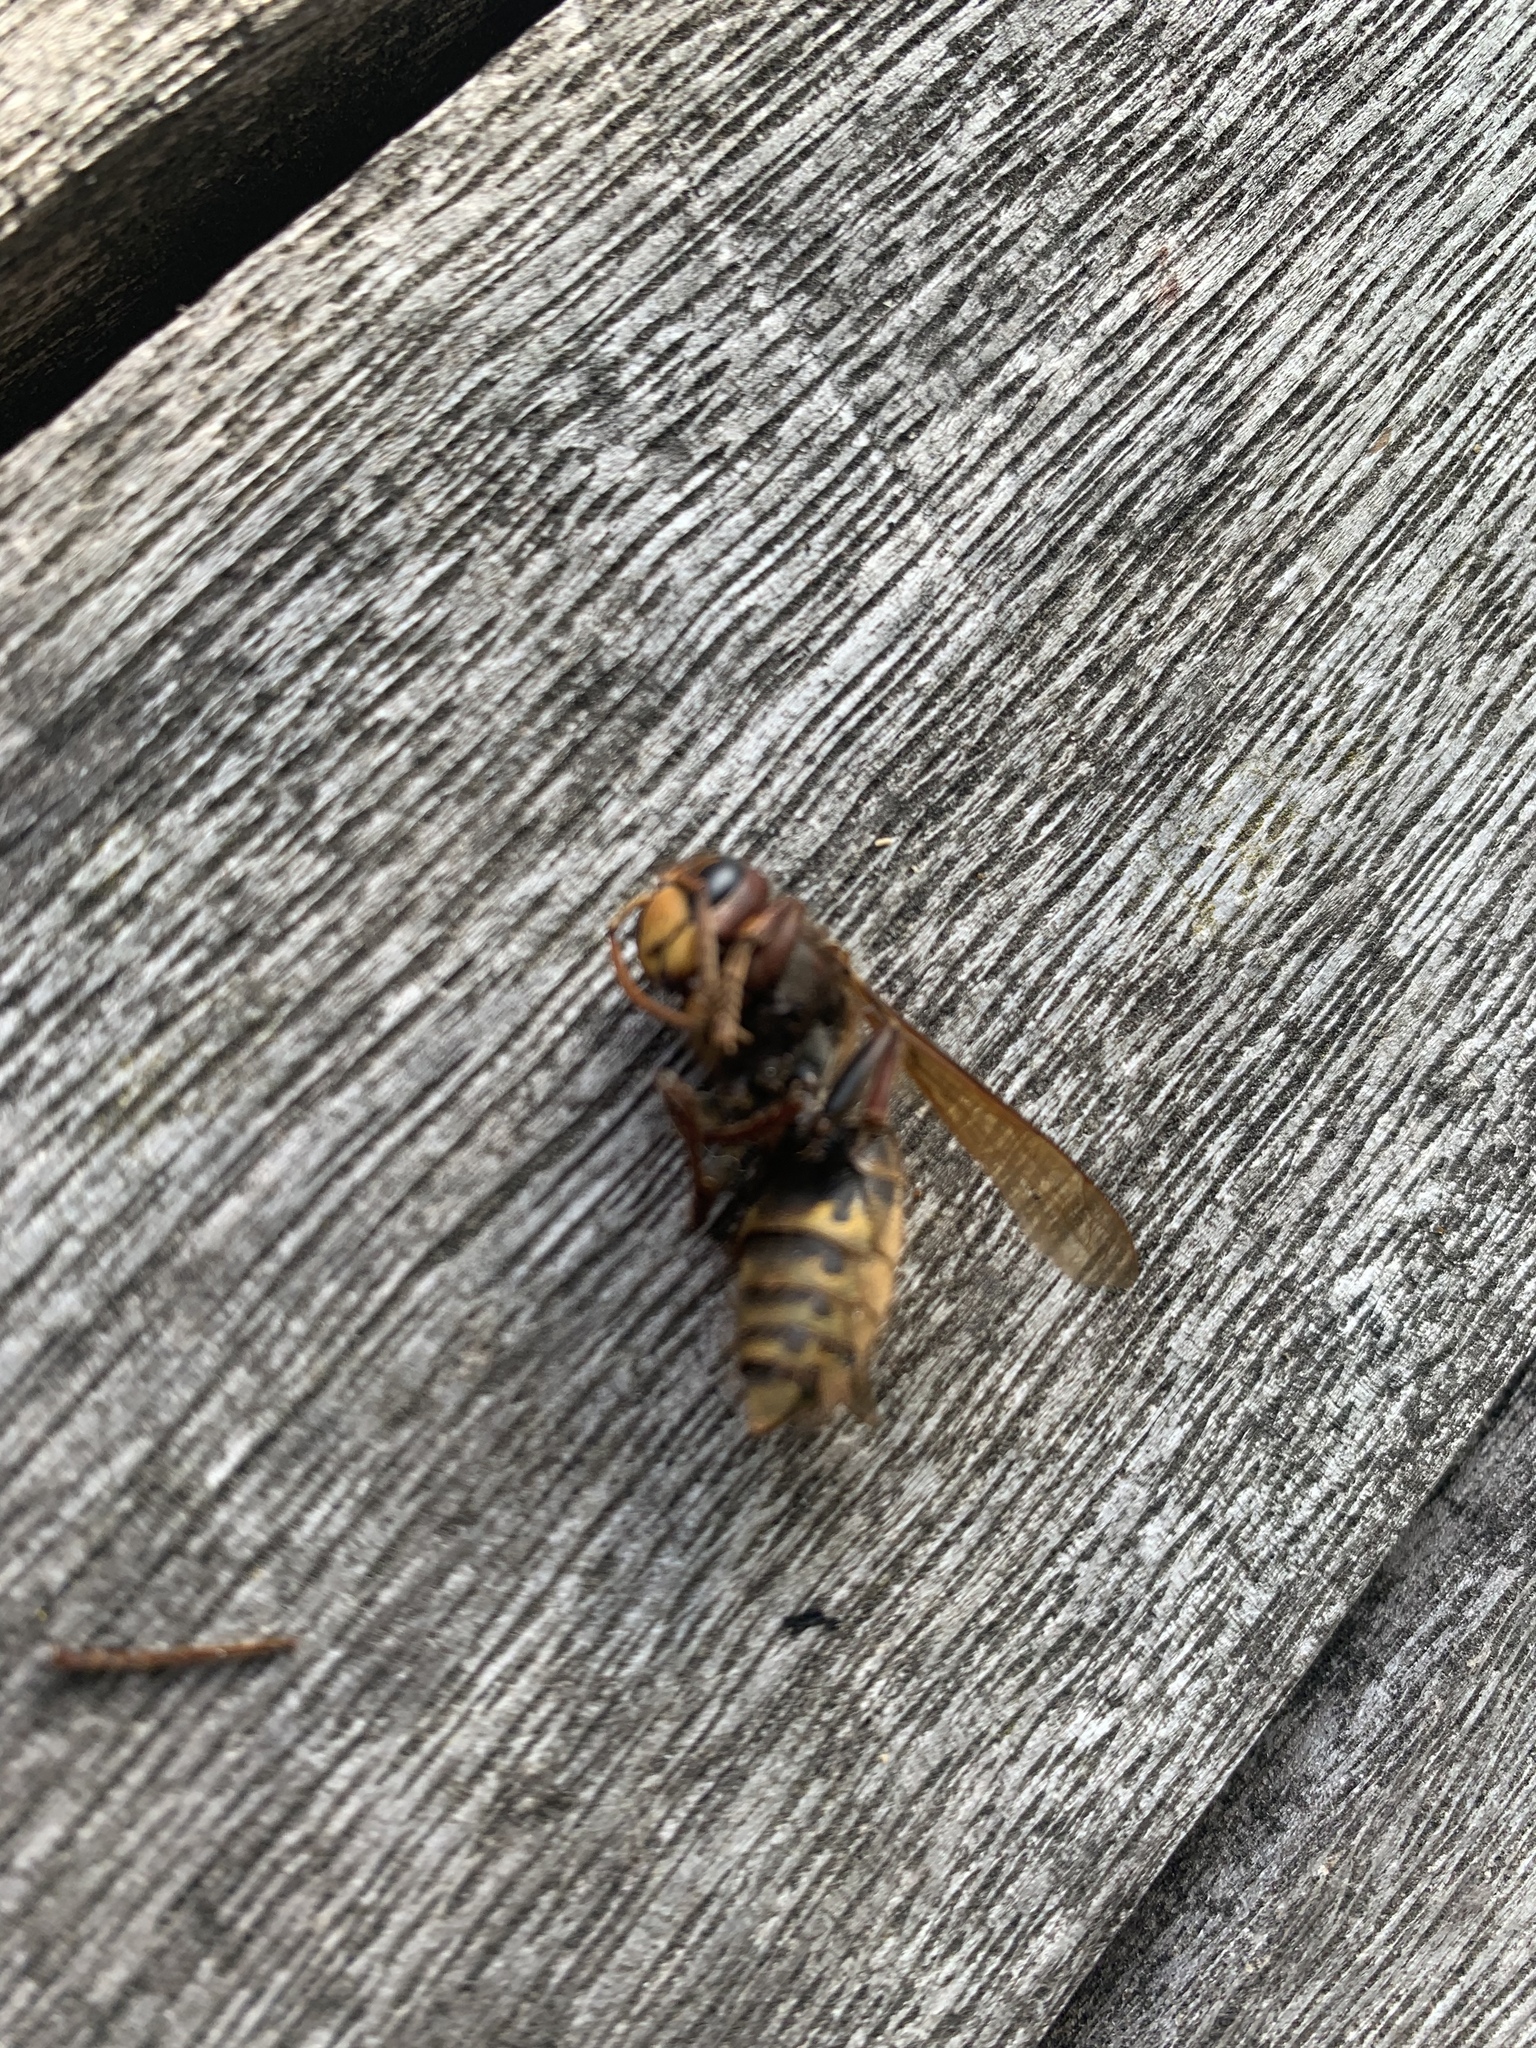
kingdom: Animalia
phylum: Arthropoda
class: Insecta
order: Hymenoptera
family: Vespidae
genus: Vespa
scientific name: Vespa crabro
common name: Hornet
